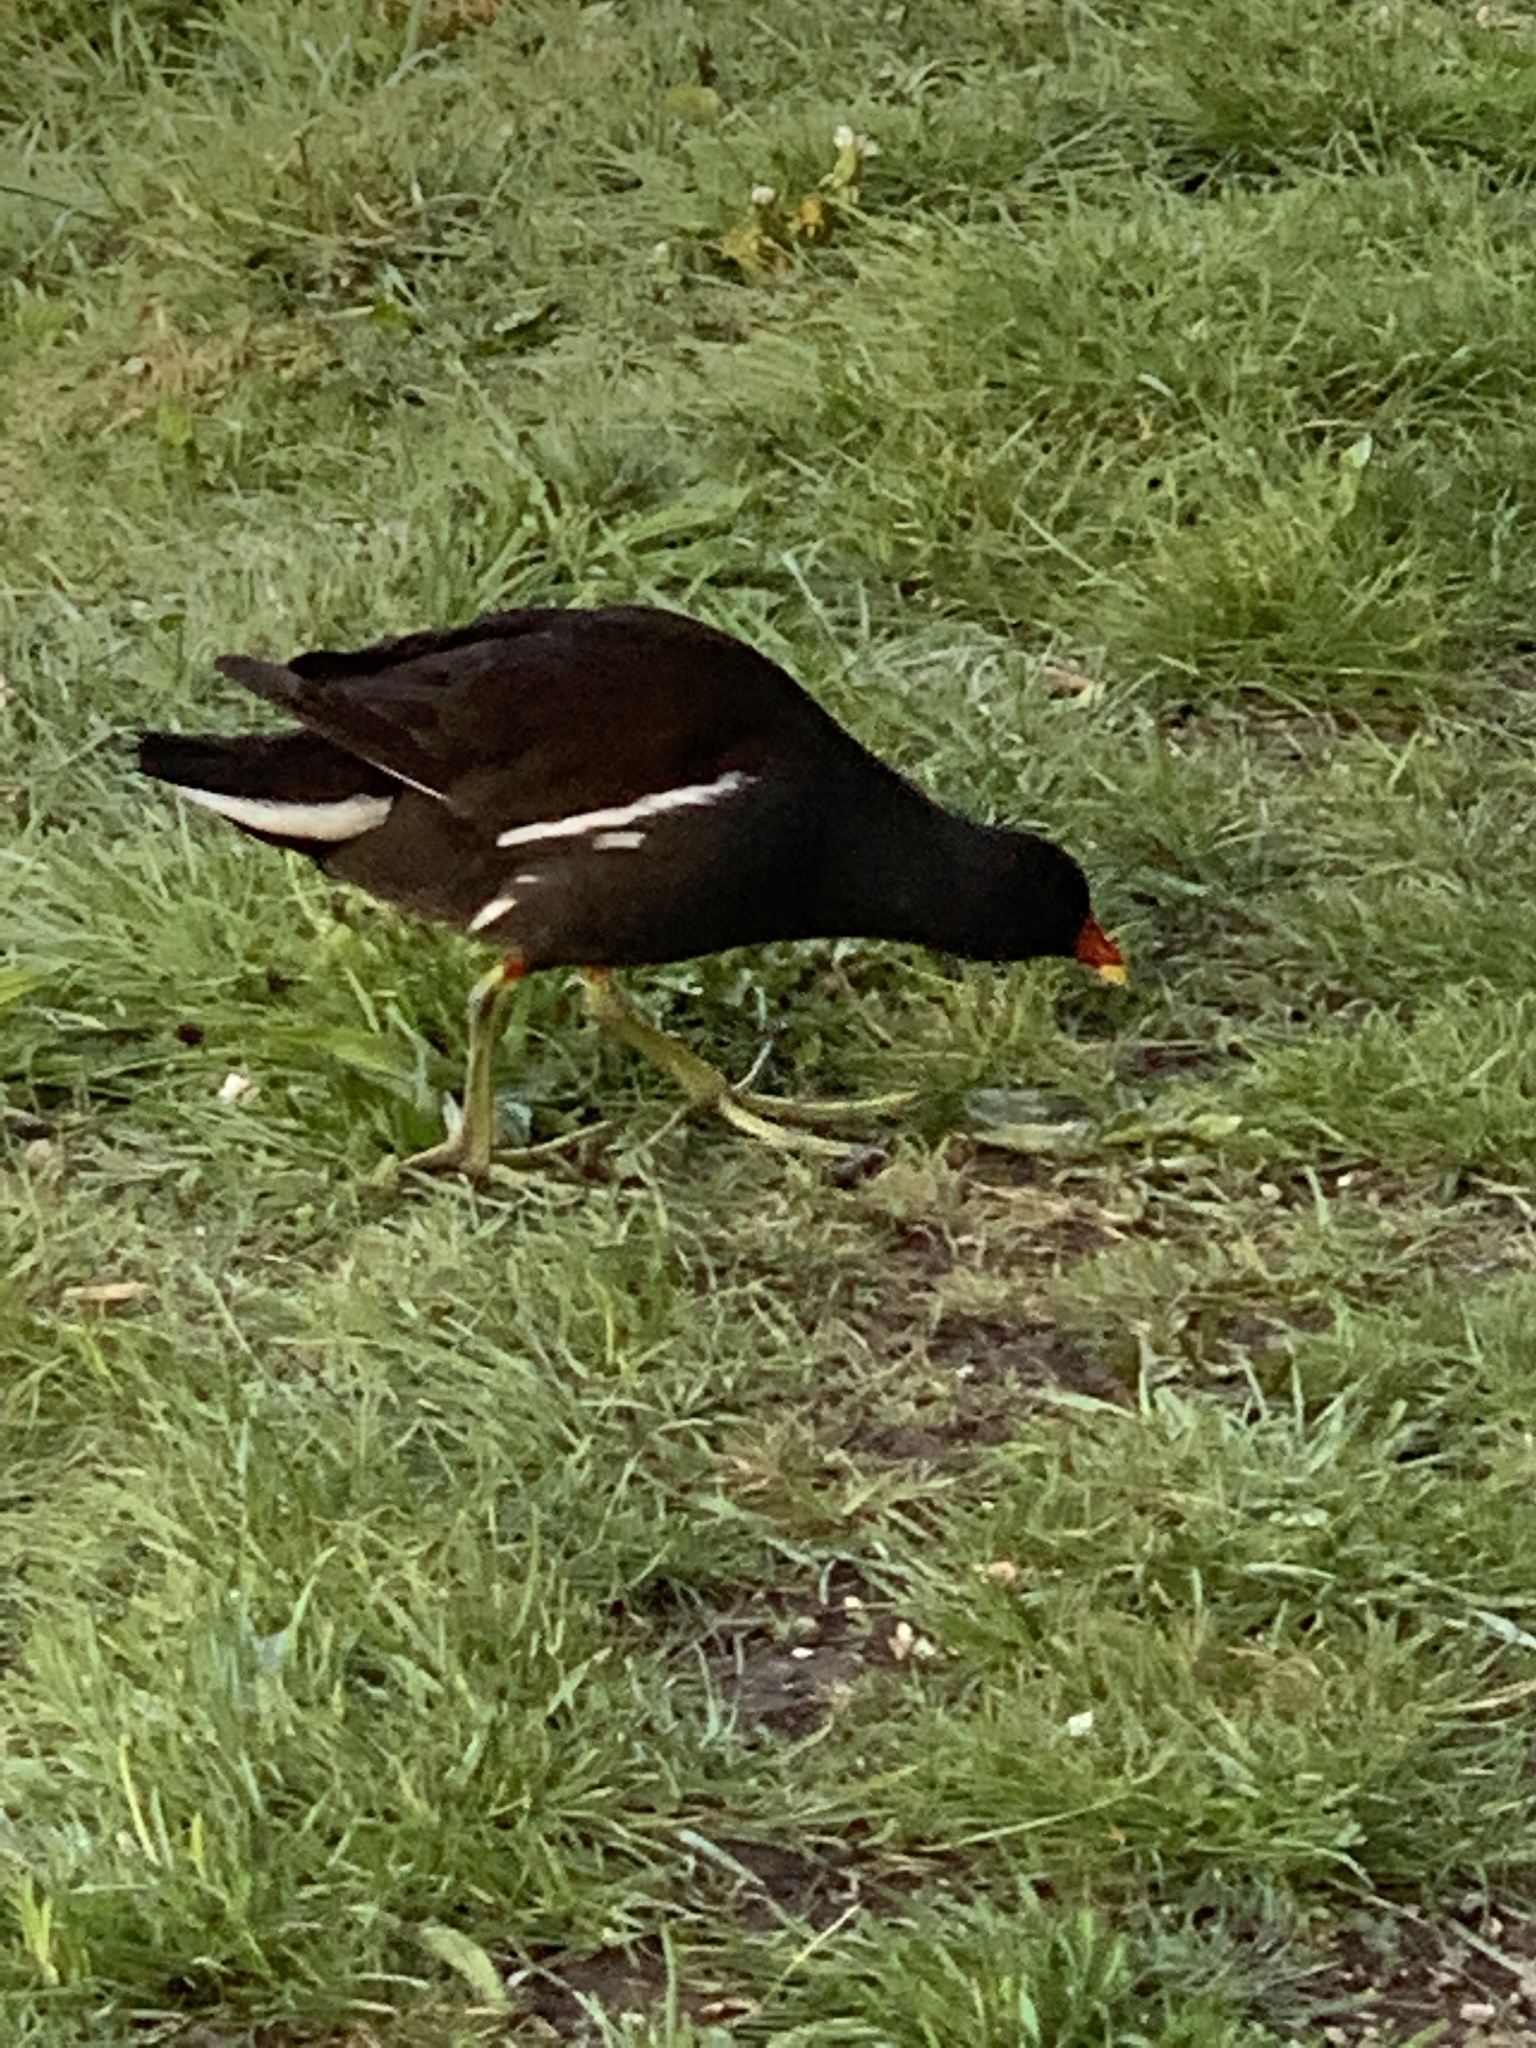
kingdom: Animalia
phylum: Chordata
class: Aves
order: Gruiformes
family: Rallidae
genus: Gallinula
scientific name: Gallinula chloropus
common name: Common moorhen
